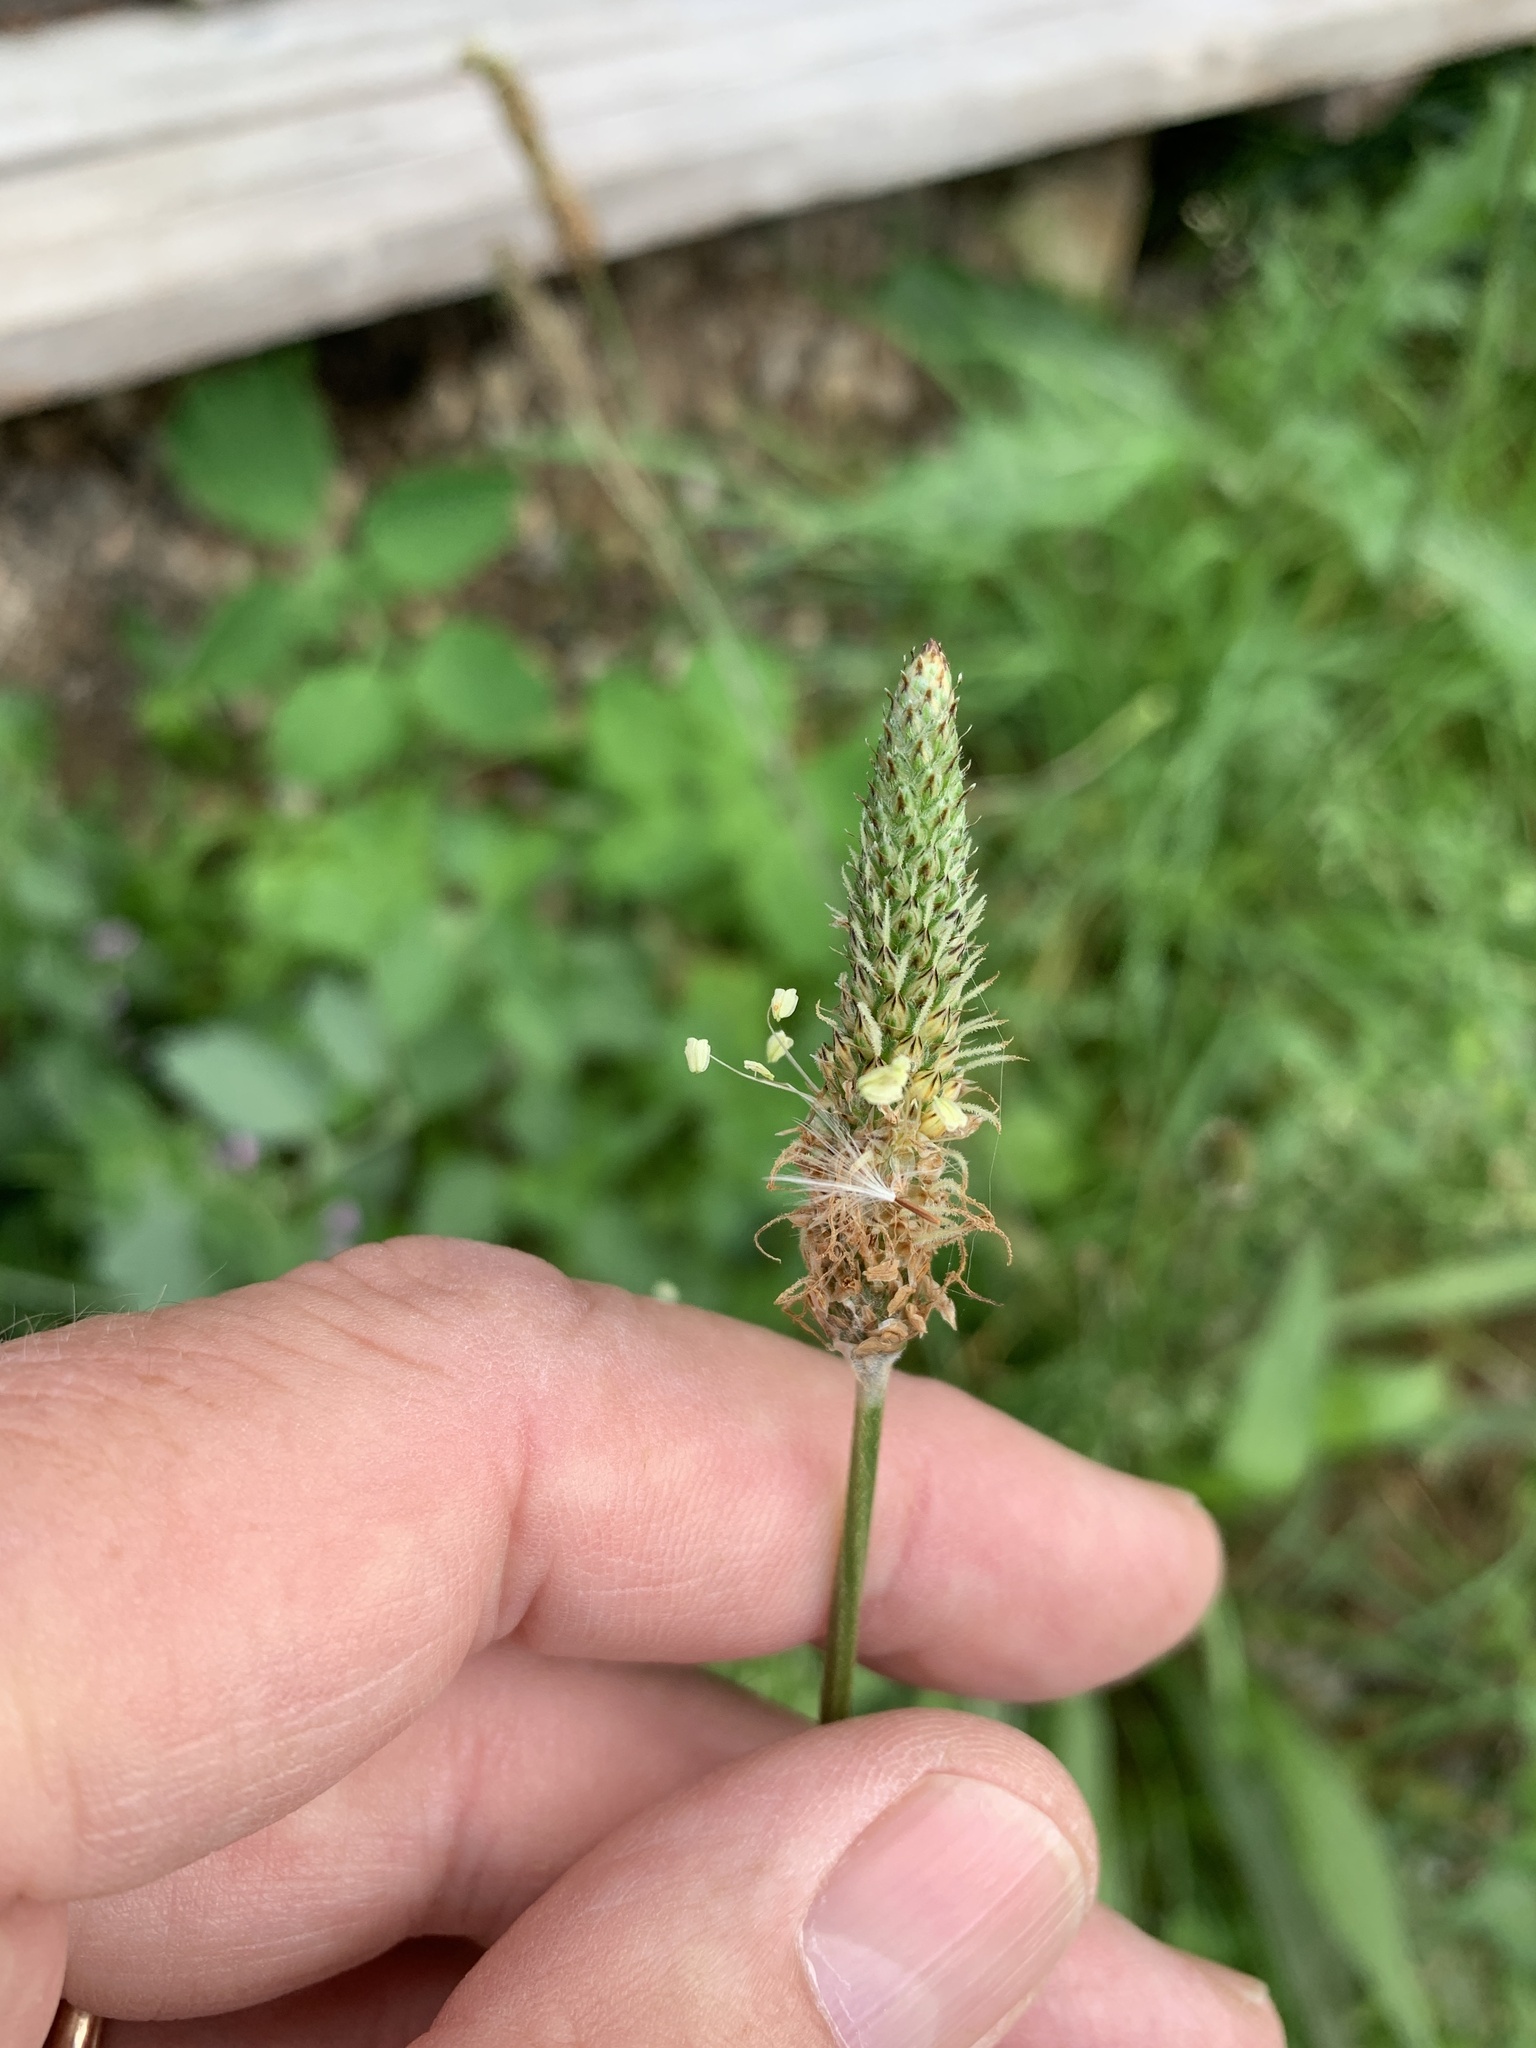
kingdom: Plantae
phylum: Tracheophyta
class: Magnoliopsida
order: Lamiales
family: Plantaginaceae
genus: Plantago
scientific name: Plantago lanceolata
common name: Ribwort plantain
